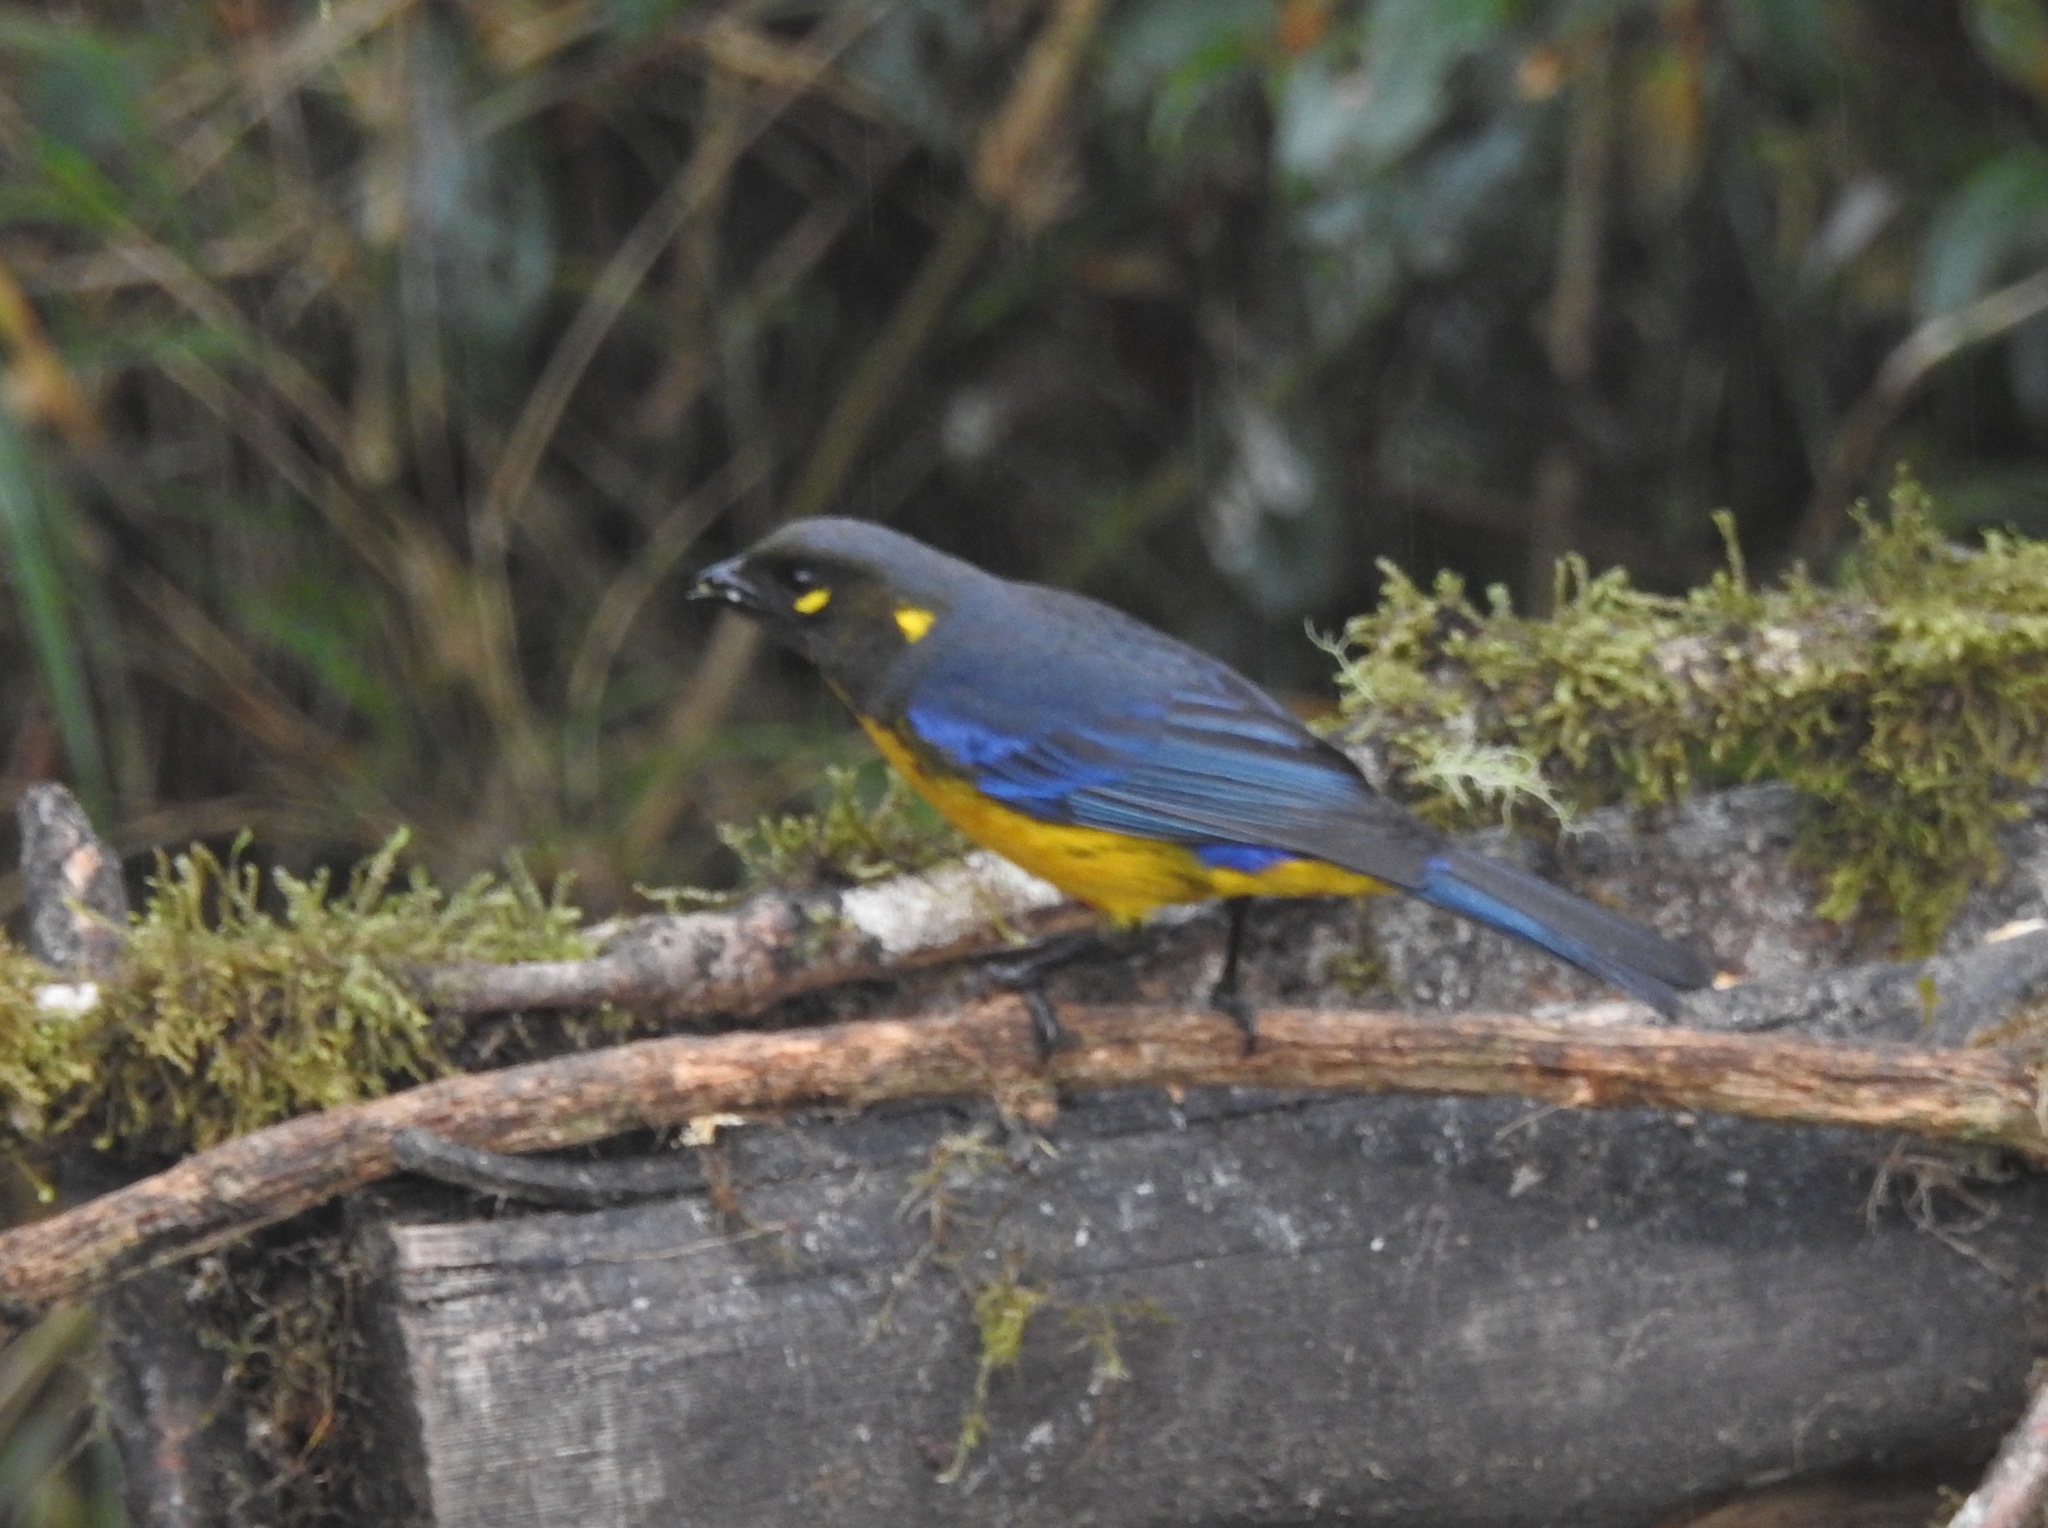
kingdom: Animalia
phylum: Chordata
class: Aves
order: Passeriformes
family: Thraupidae
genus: Anisognathus
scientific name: Anisognathus lacrymosus
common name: Lacrimose mountain-tanager
